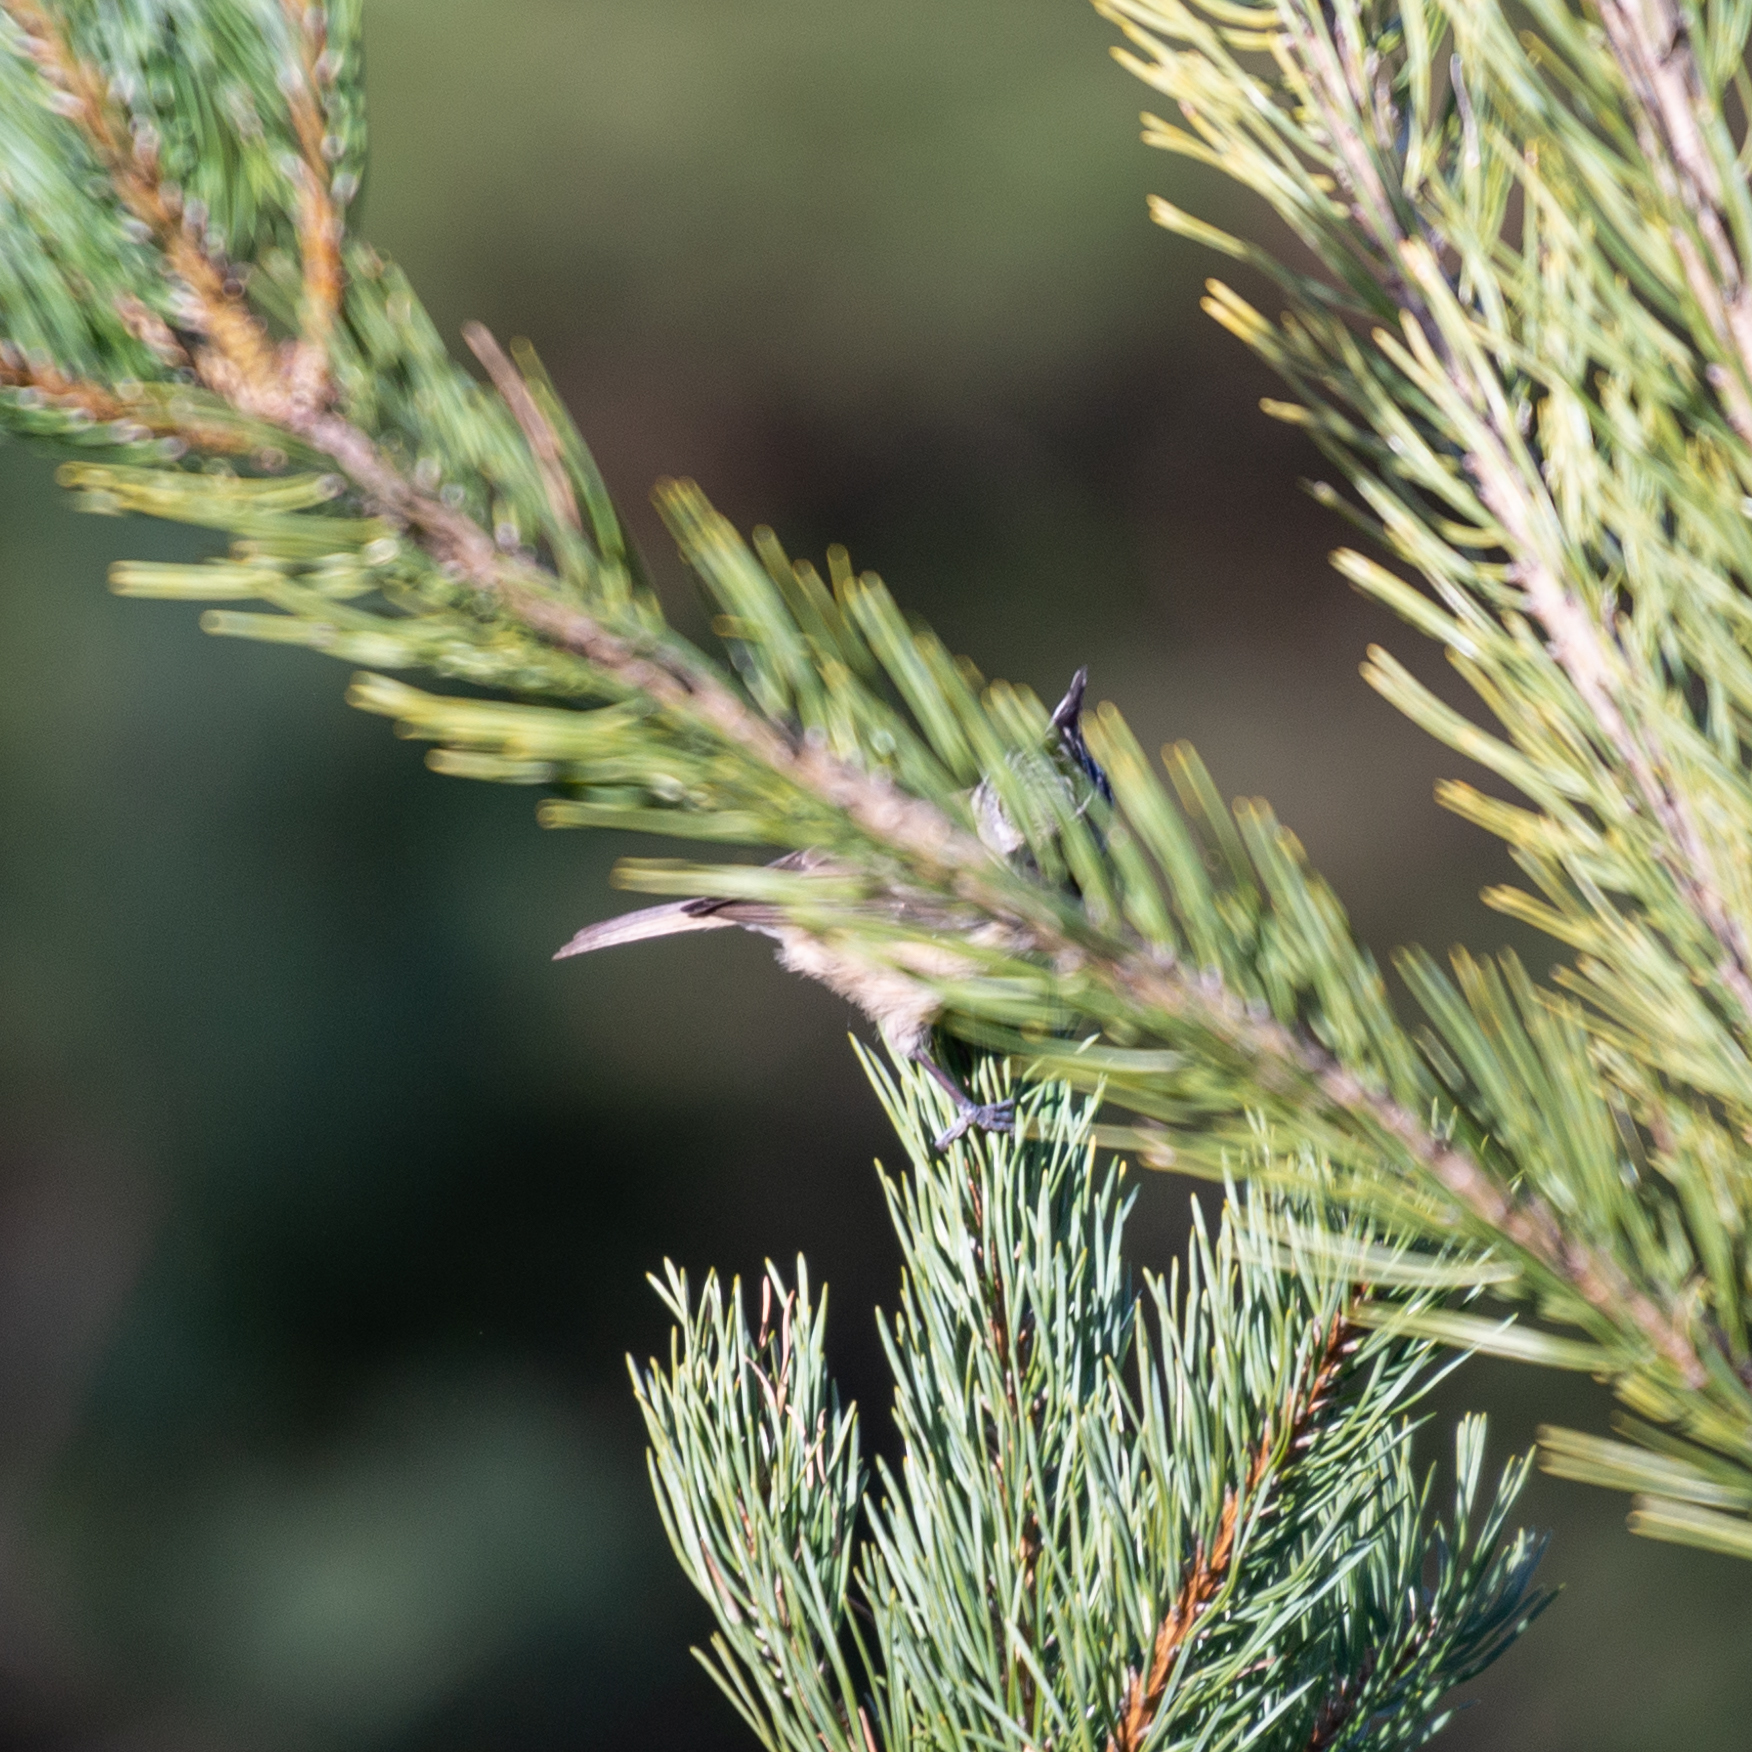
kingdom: Animalia
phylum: Chordata
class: Aves
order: Passeriformes
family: Paridae
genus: Lophophanes
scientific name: Lophophanes cristatus
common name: European crested tit
